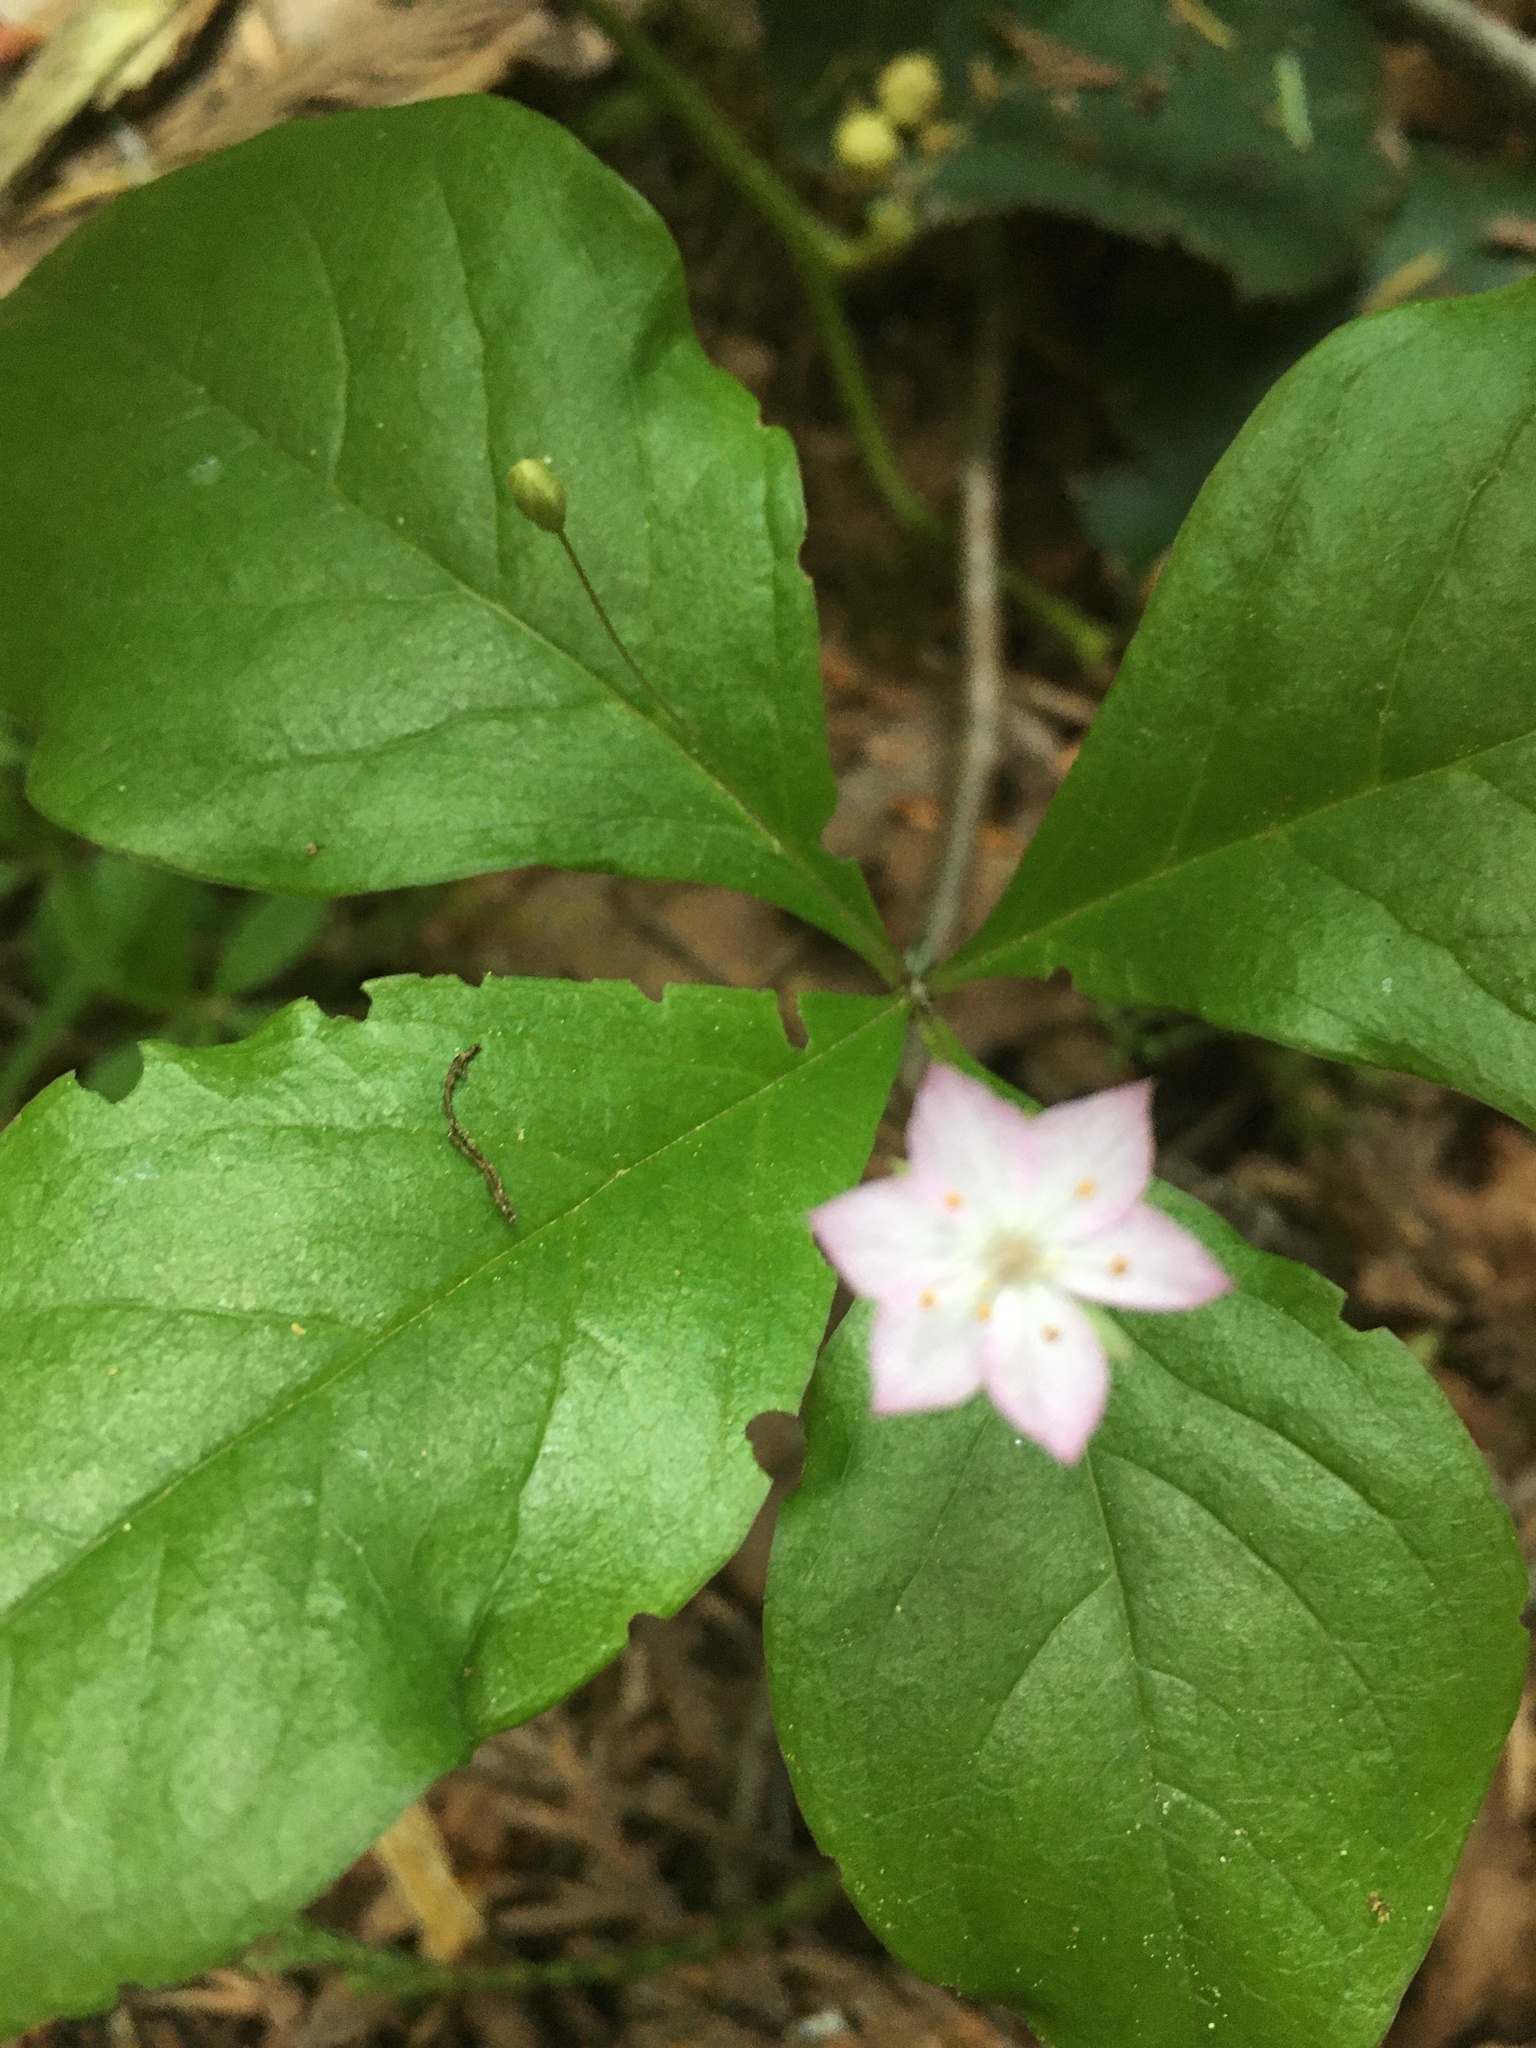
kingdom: Plantae
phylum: Tracheophyta
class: Magnoliopsida
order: Ericales
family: Primulaceae
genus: Lysimachia
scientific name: Lysimachia latifolia
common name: Pacific starflower
